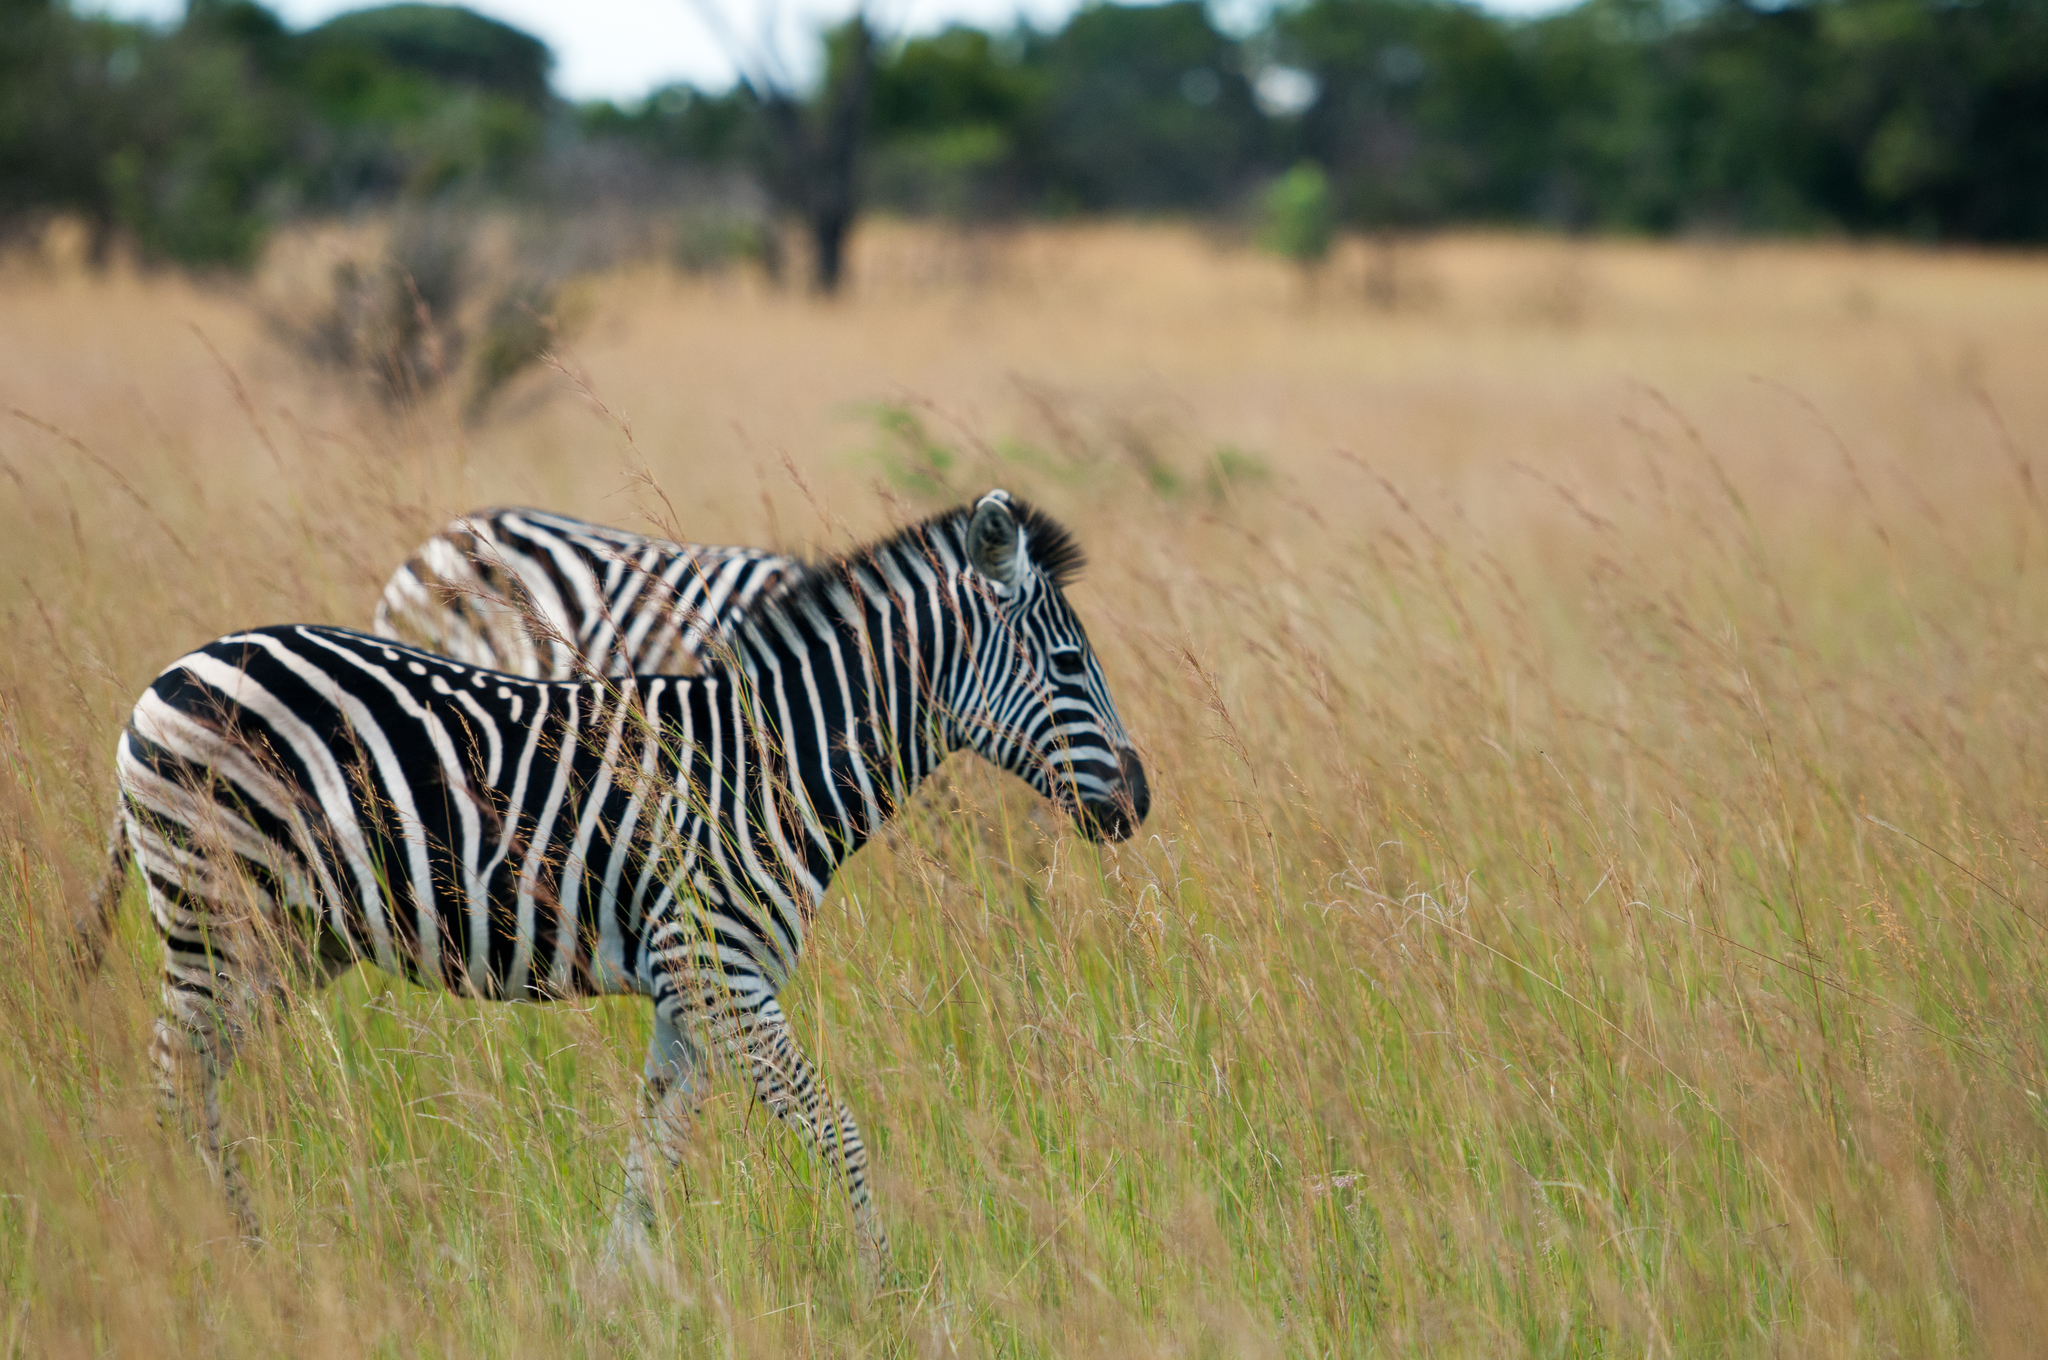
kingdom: Animalia
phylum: Chordata
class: Mammalia
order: Perissodactyla
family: Equidae
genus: Equus
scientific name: Equus quagga
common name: Plains zebra
